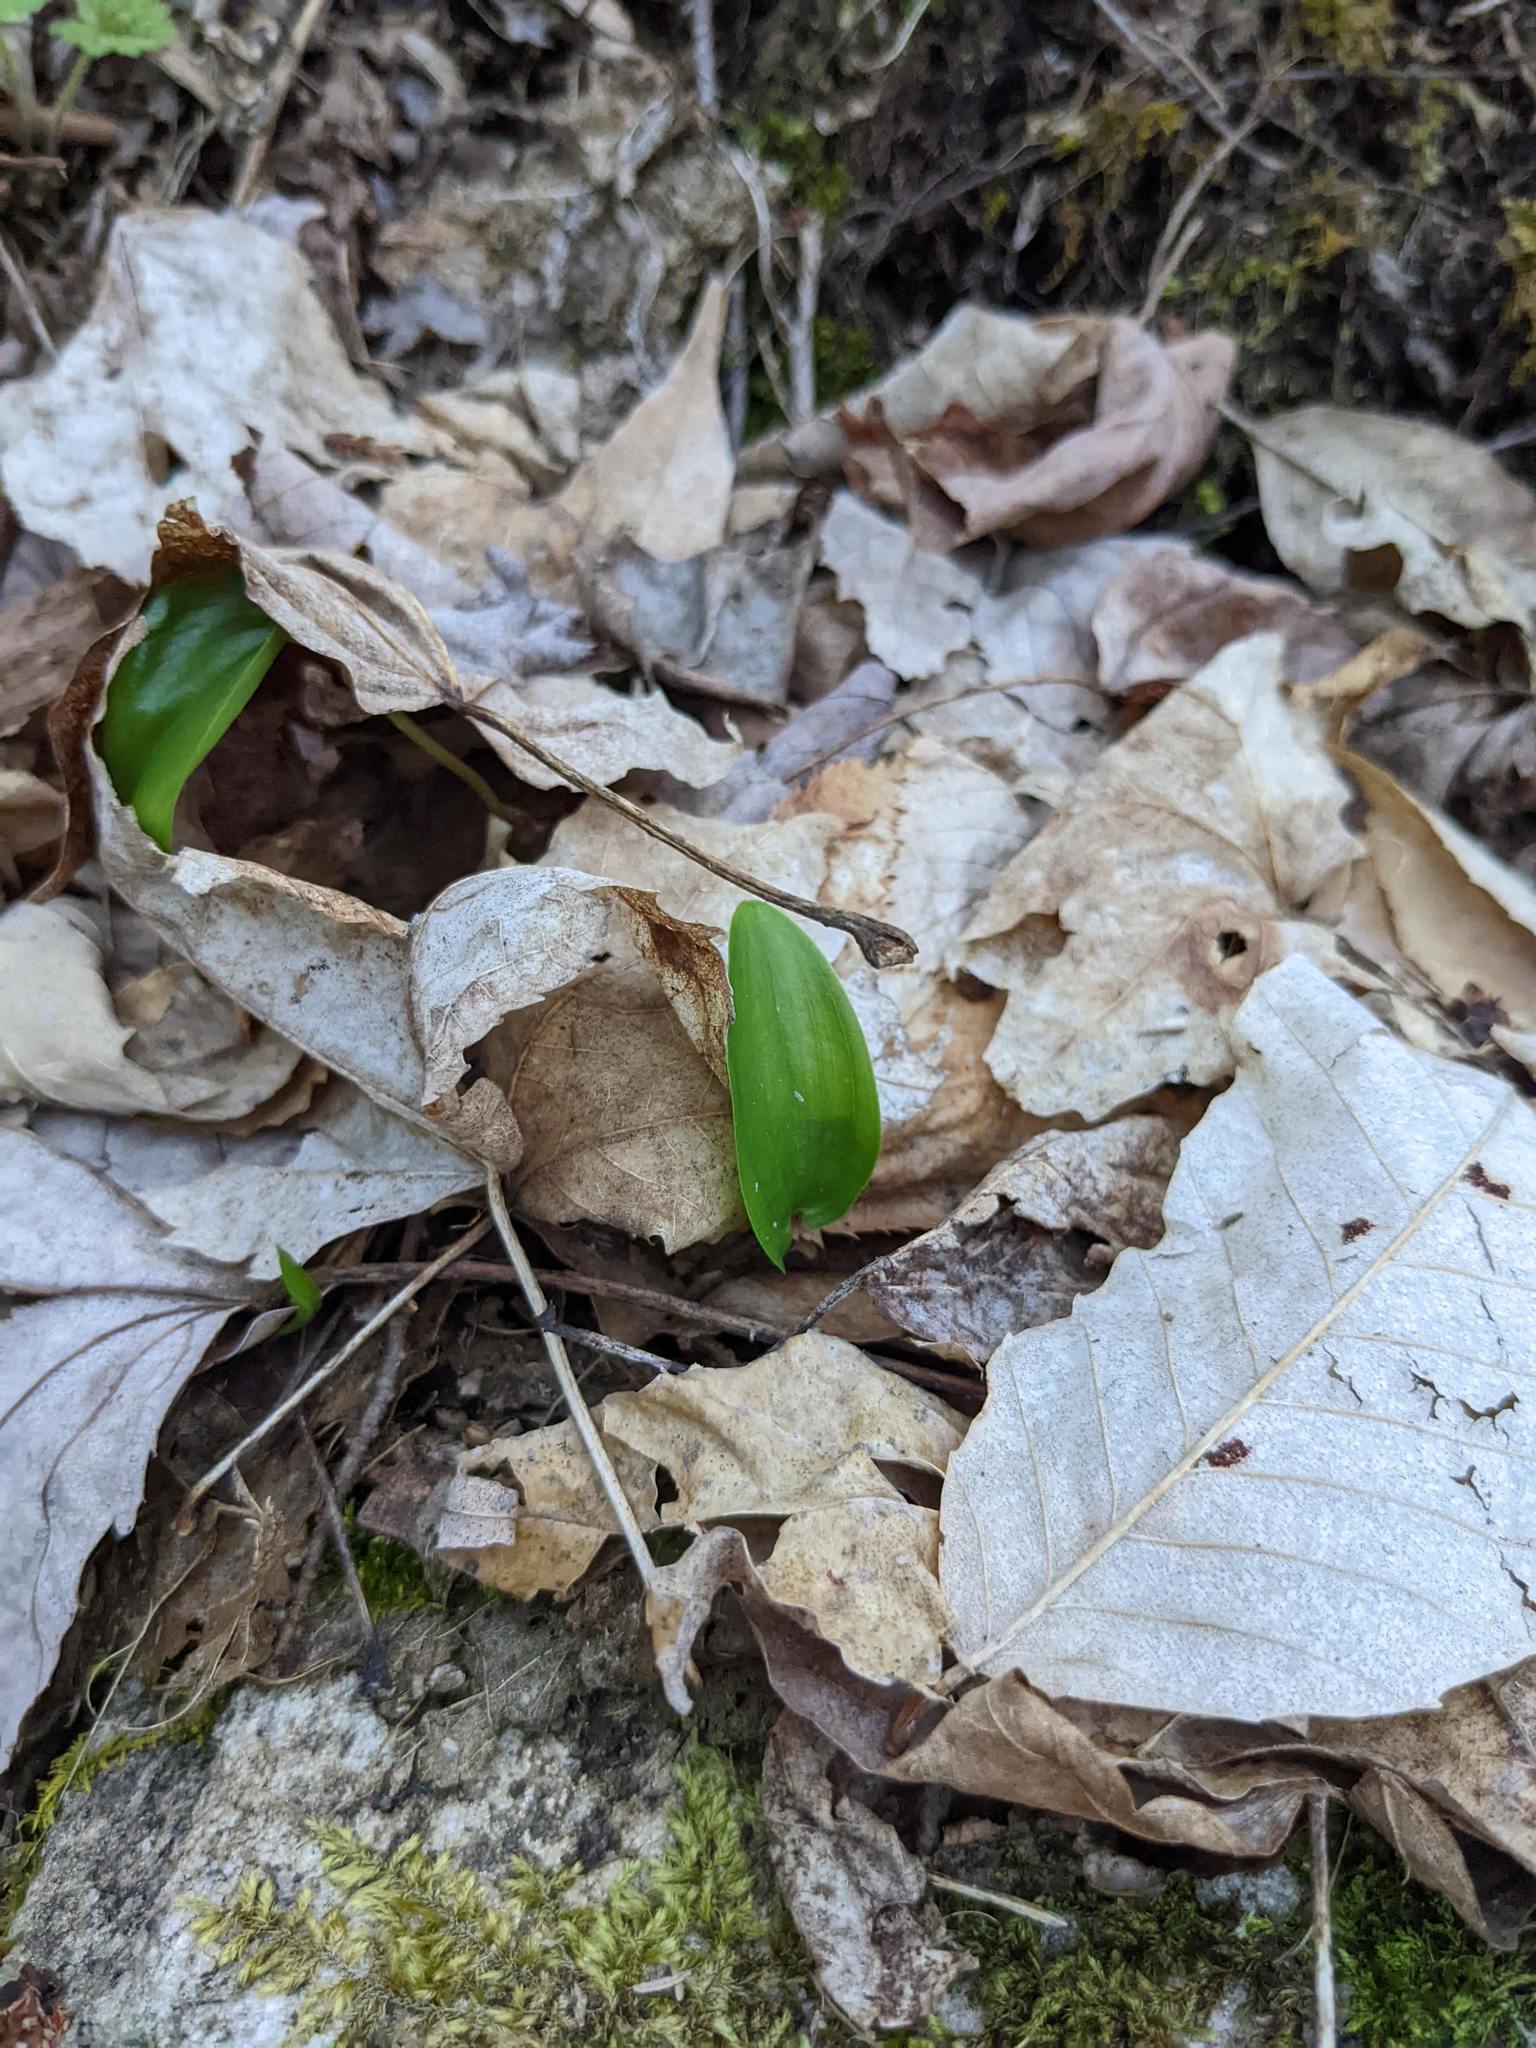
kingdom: Plantae
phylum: Tracheophyta
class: Liliopsida
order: Asparagales
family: Asparagaceae
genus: Maianthemum
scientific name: Maianthemum canadense
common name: False lily-of-the-valley
